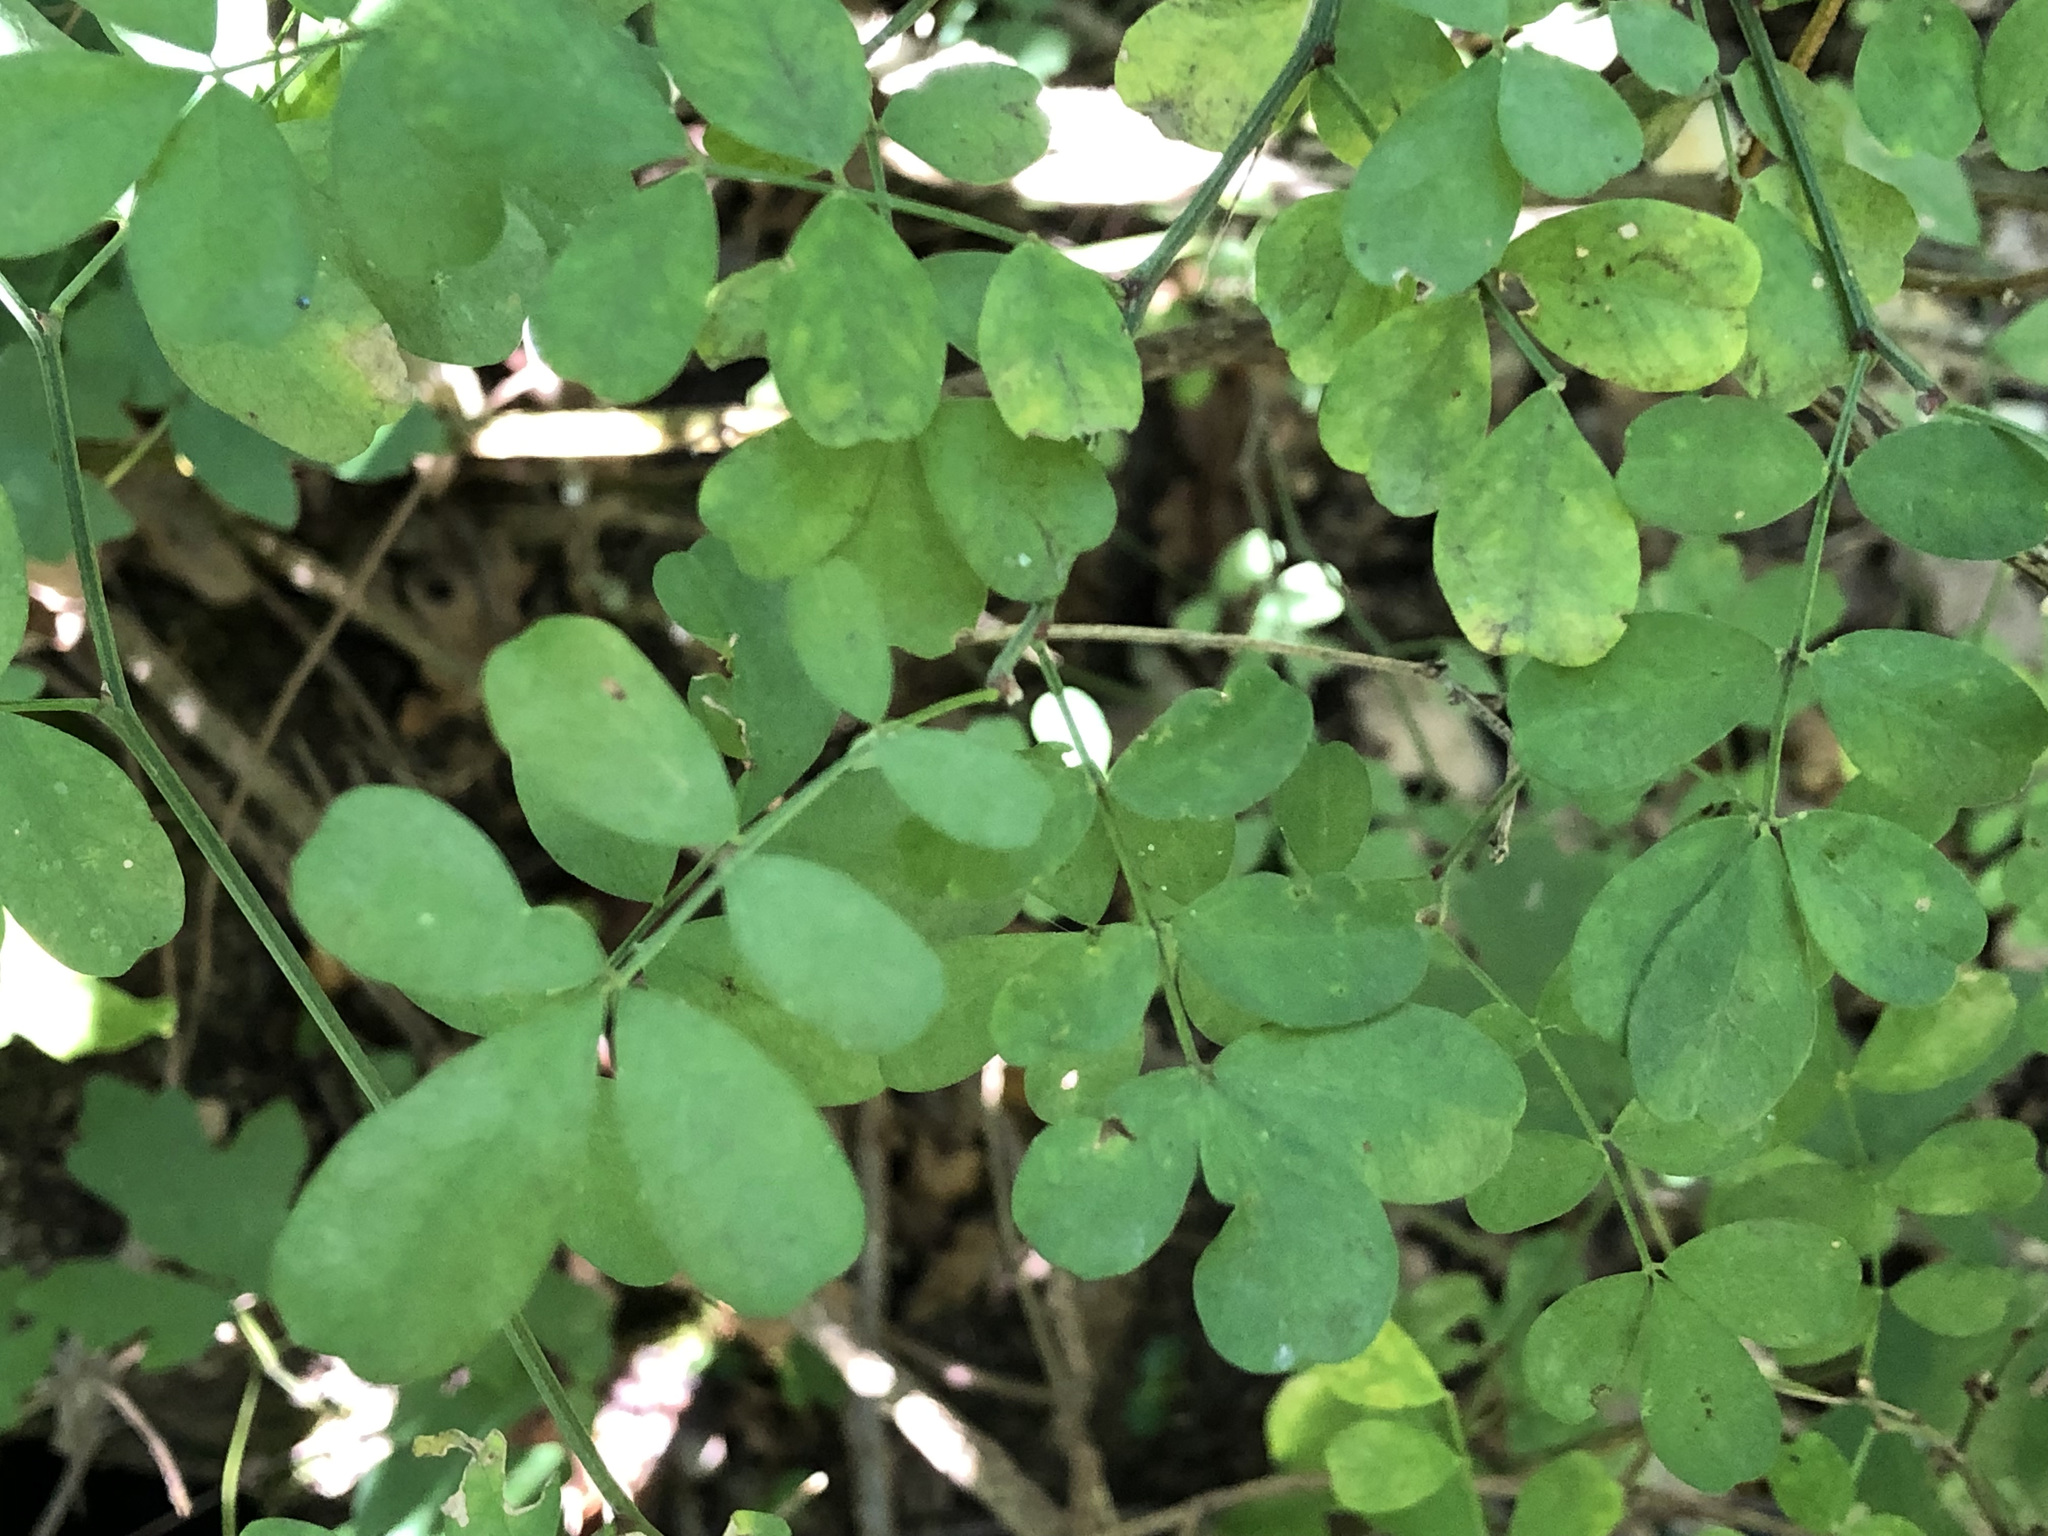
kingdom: Plantae
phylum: Tracheophyta
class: Magnoliopsida
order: Fabales
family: Fabaceae
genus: Hippocrepis
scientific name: Hippocrepis emerus
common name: Scorpion senna
